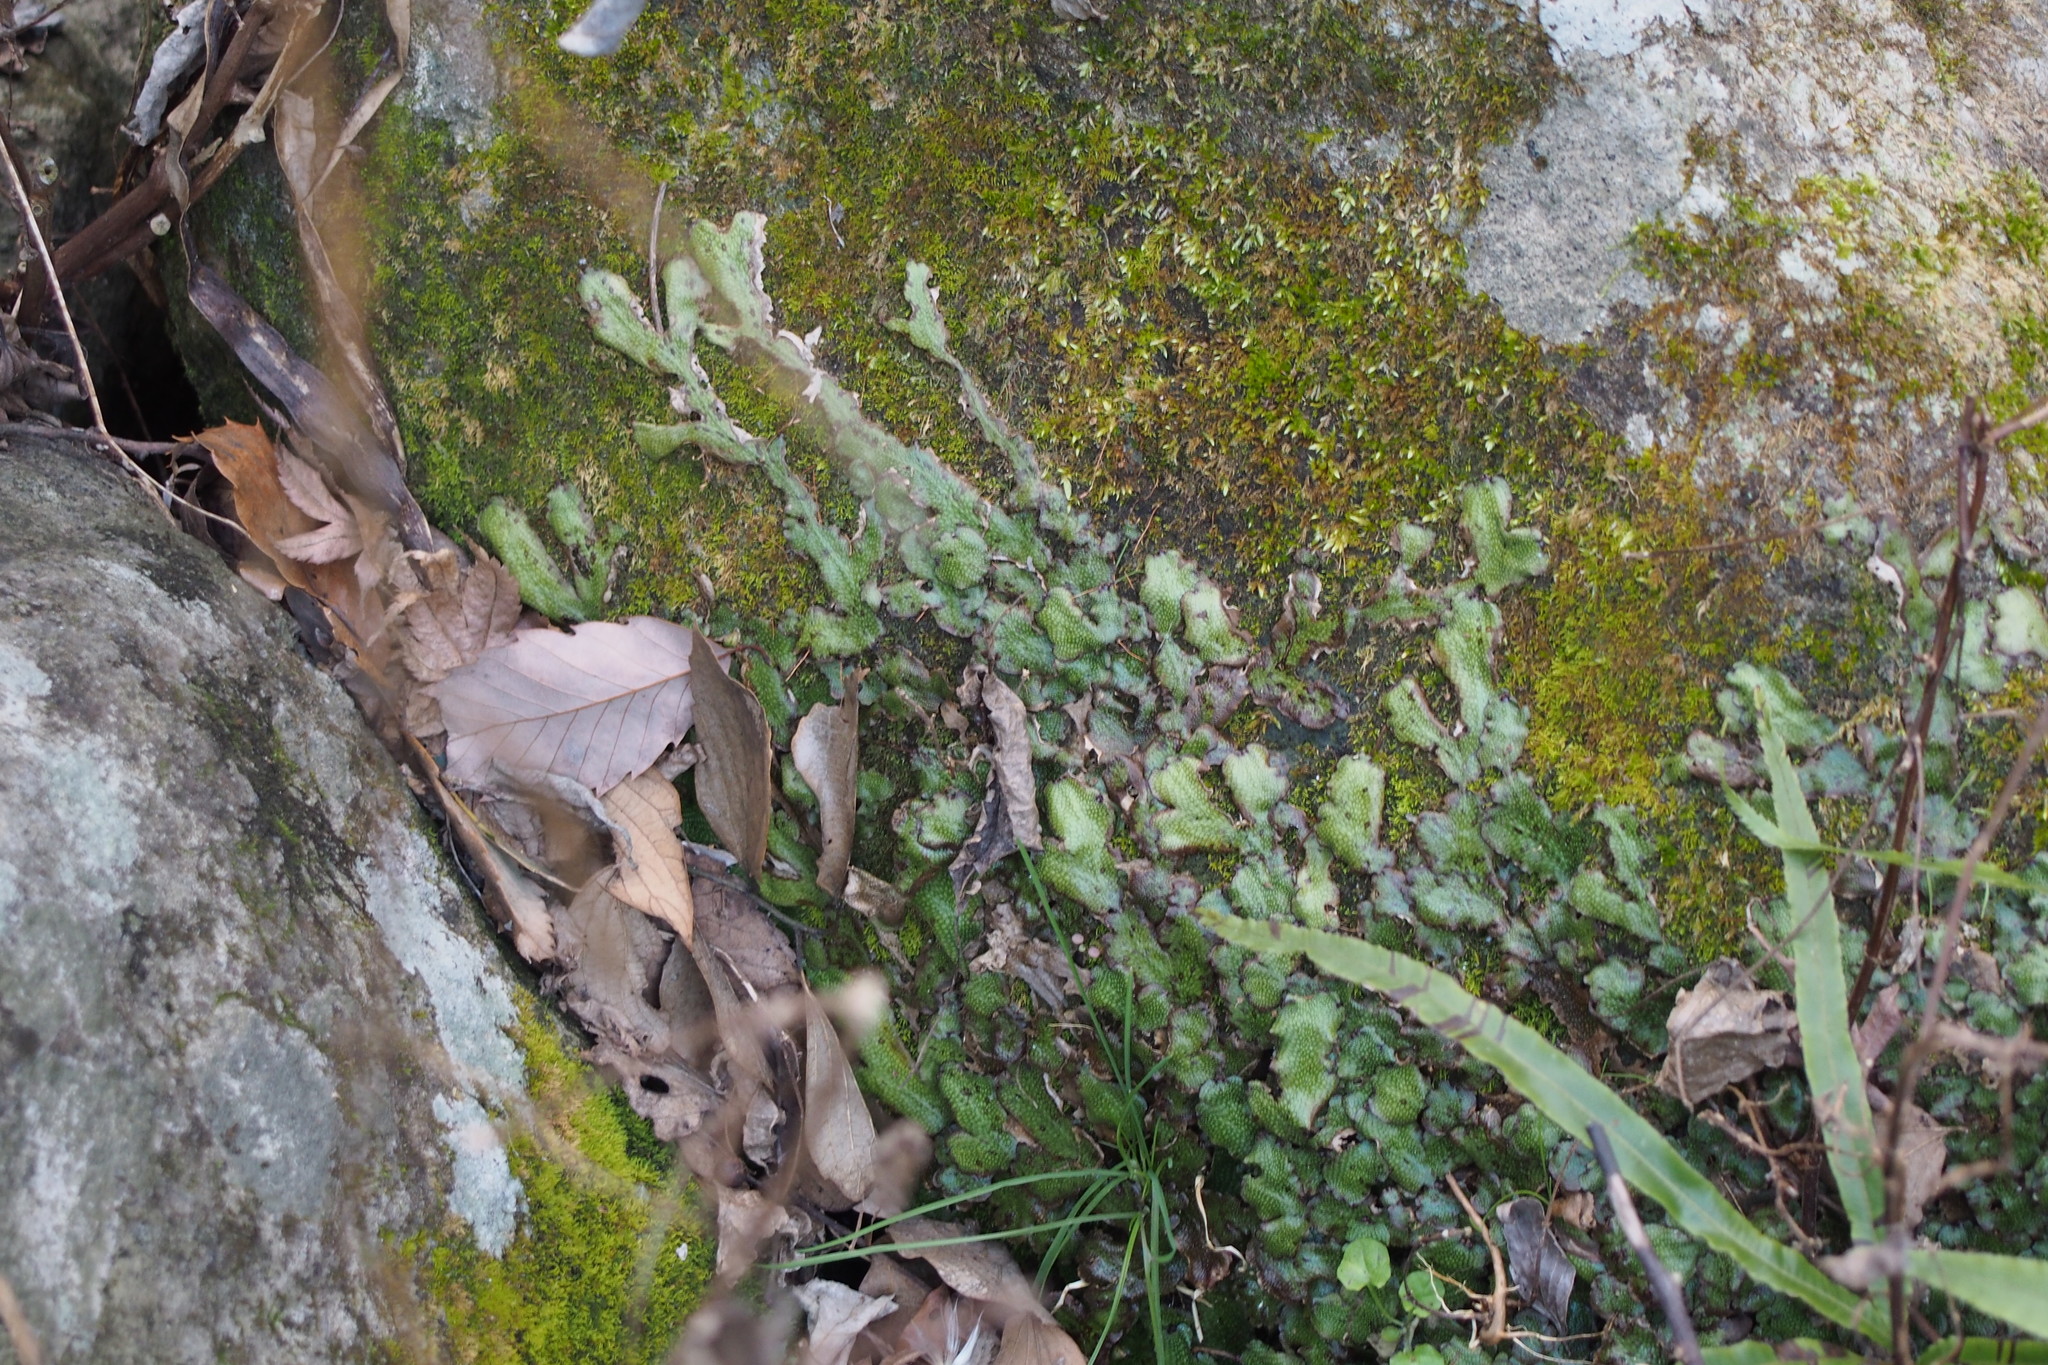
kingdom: Plantae
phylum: Marchantiophyta
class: Marchantiopsida
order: Marchantiales
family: Conocephalaceae
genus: Conocephalum
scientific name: Conocephalum conicum
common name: Great scented liverwort
